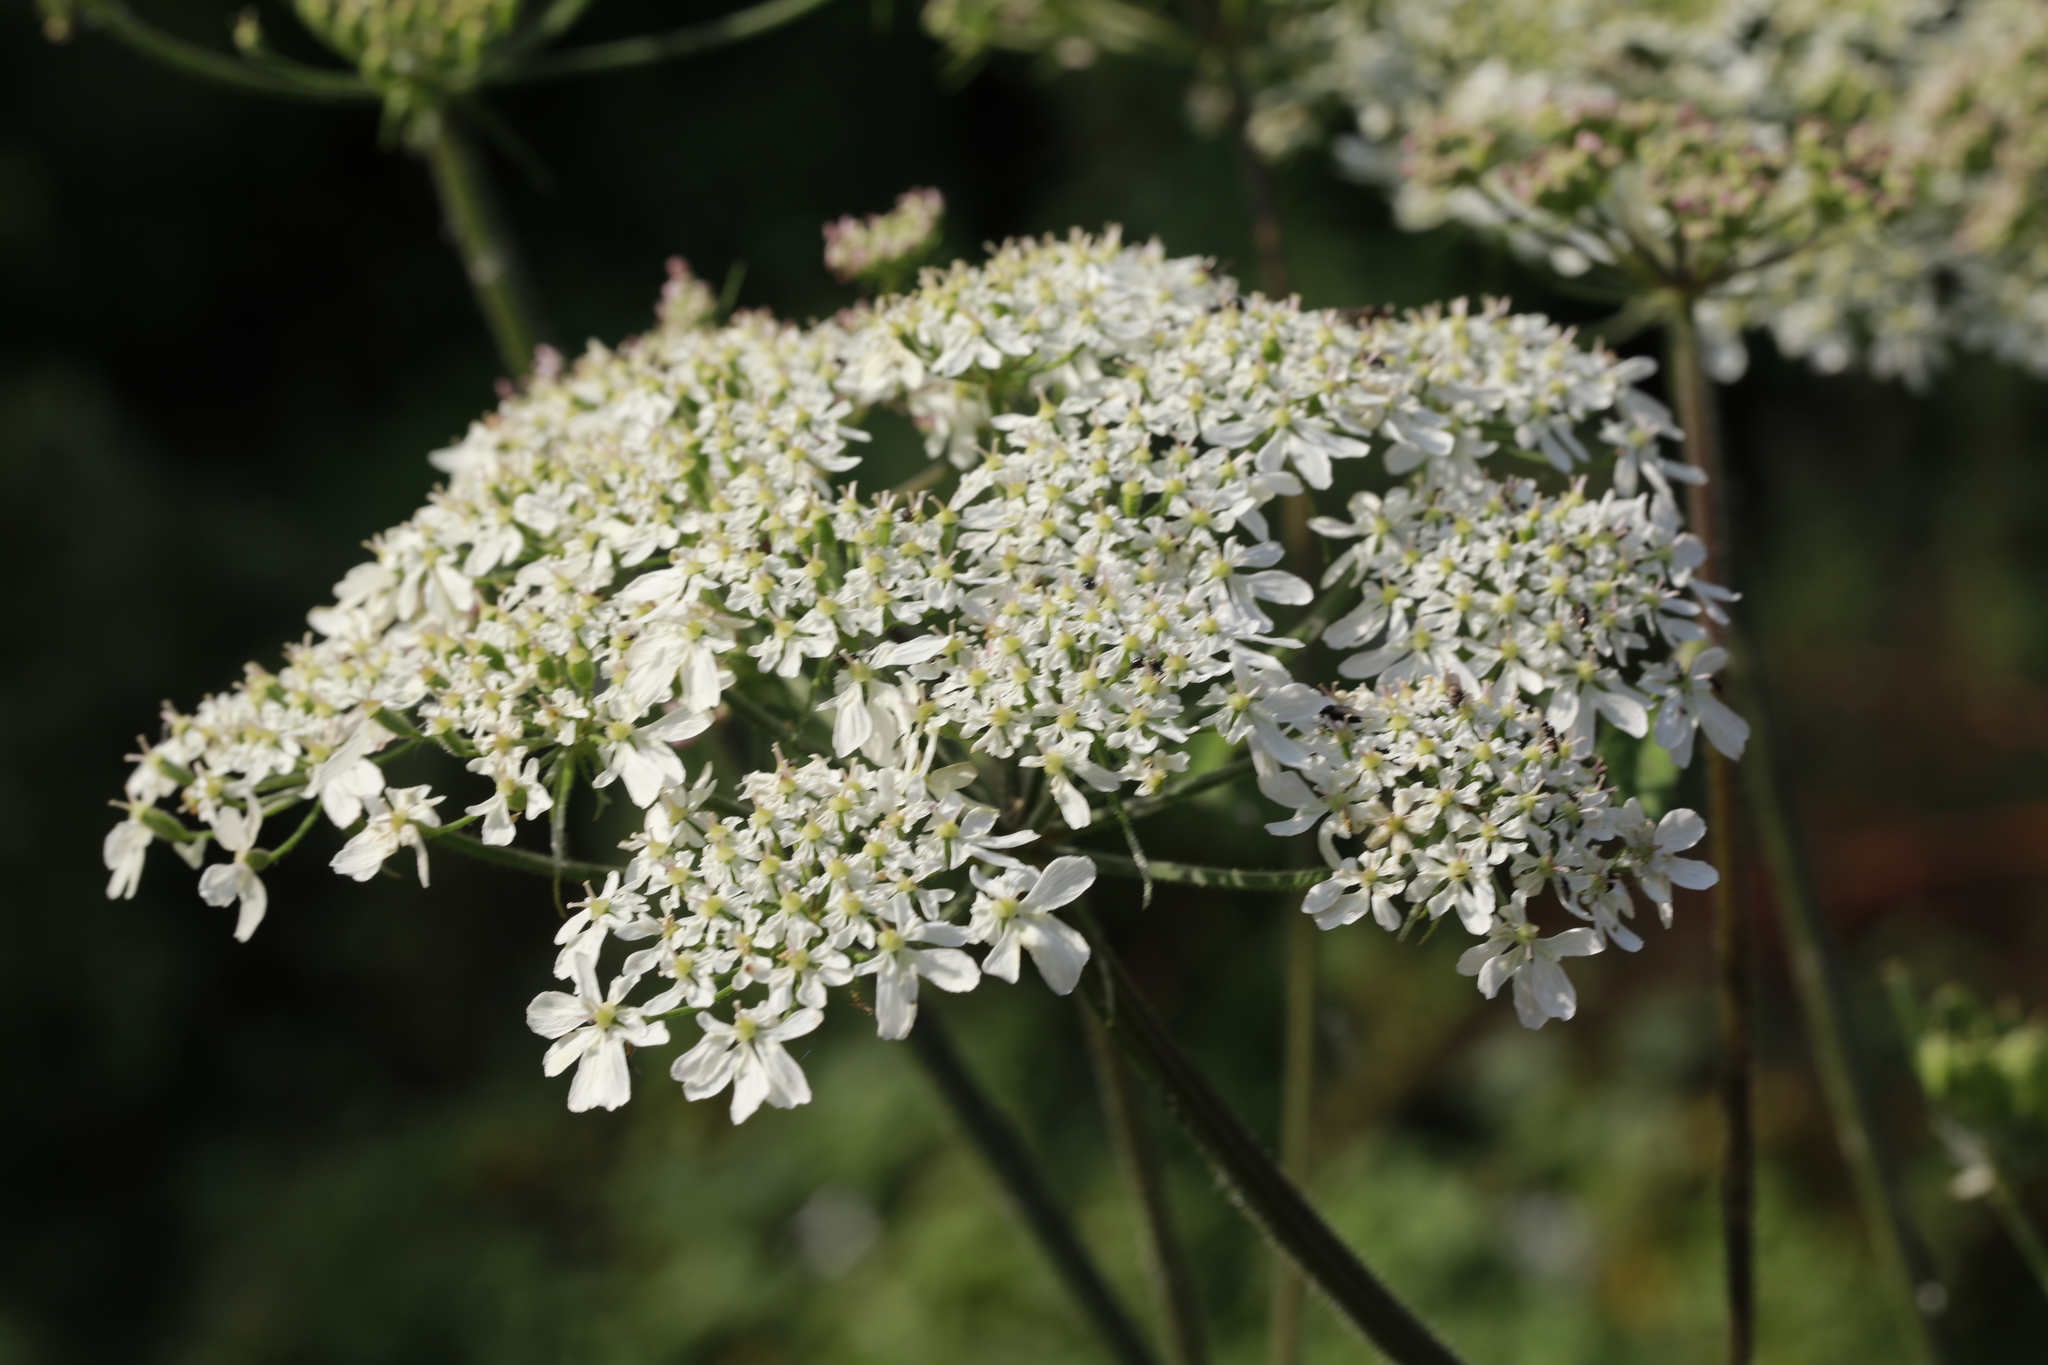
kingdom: Plantae
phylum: Tracheophyta
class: Magnoliopsida
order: Apiales
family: Apiaceae
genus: Heracleum
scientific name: Heracleum sphondylium
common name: Hogweed
